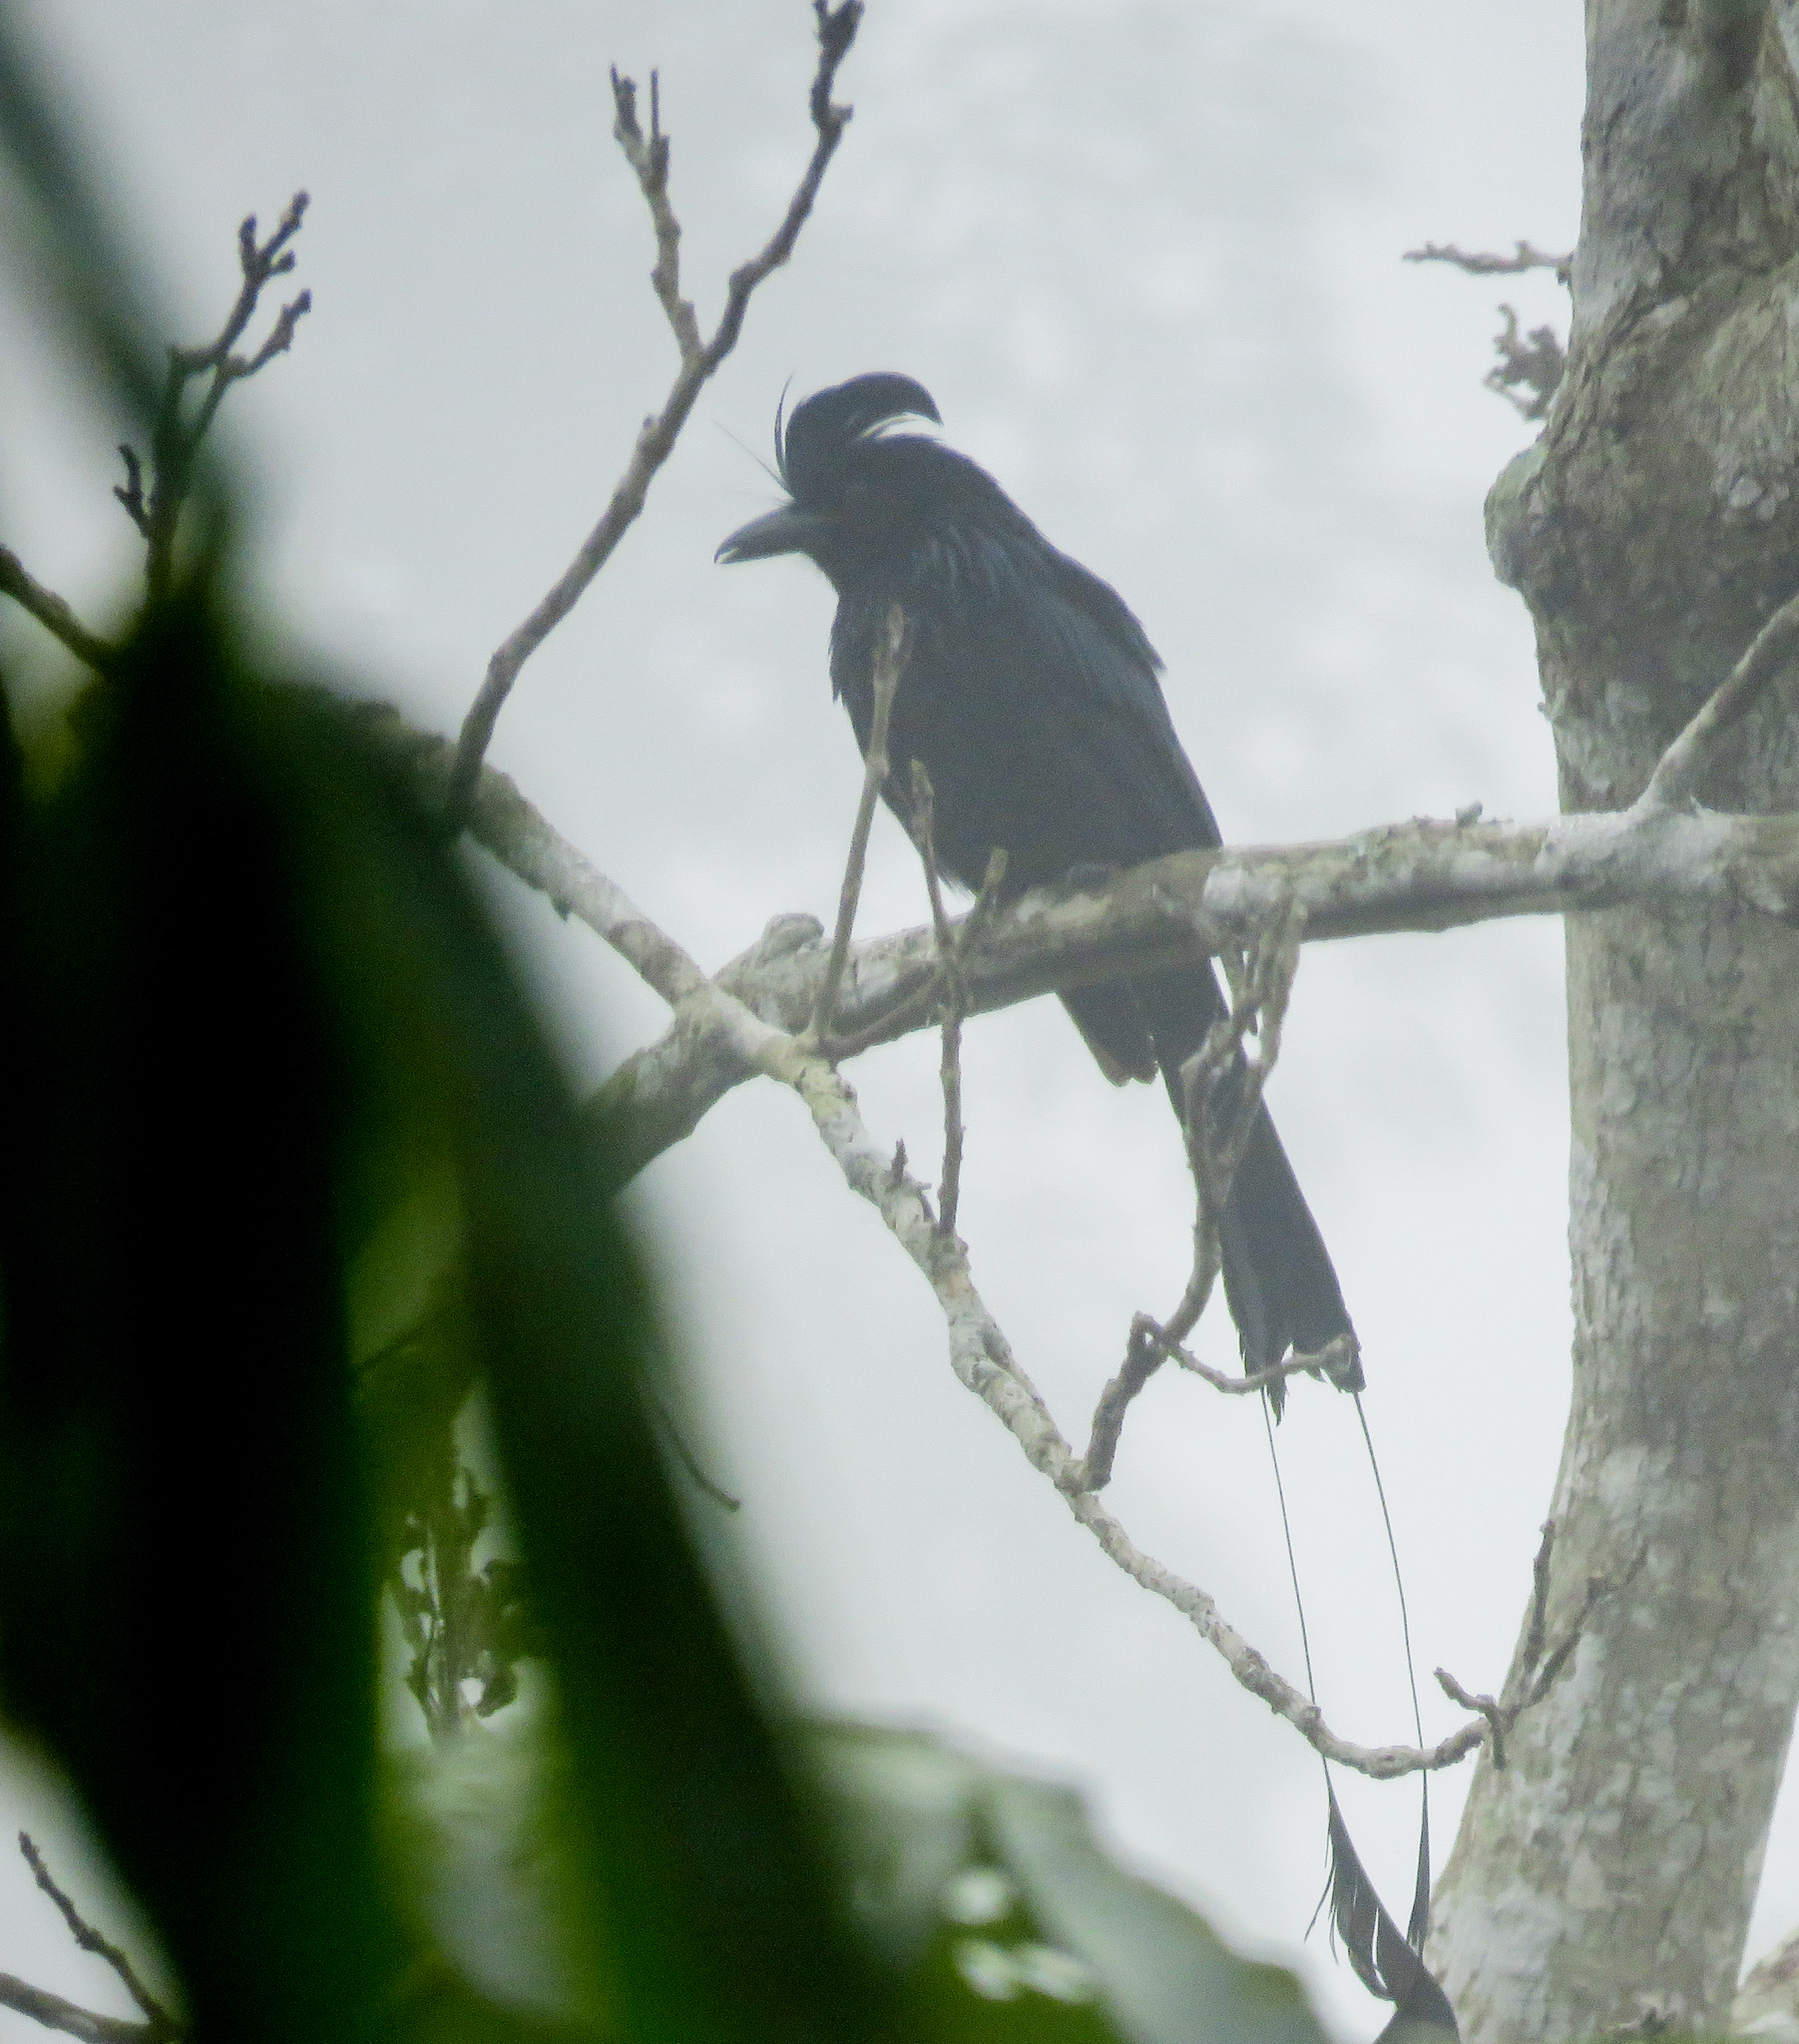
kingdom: Animalia
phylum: Chordata
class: Aves
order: Passeriformes
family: Dicruridae
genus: Dicrurus
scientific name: Dicrurus paradiseus
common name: Greater racket-tailed drongo
